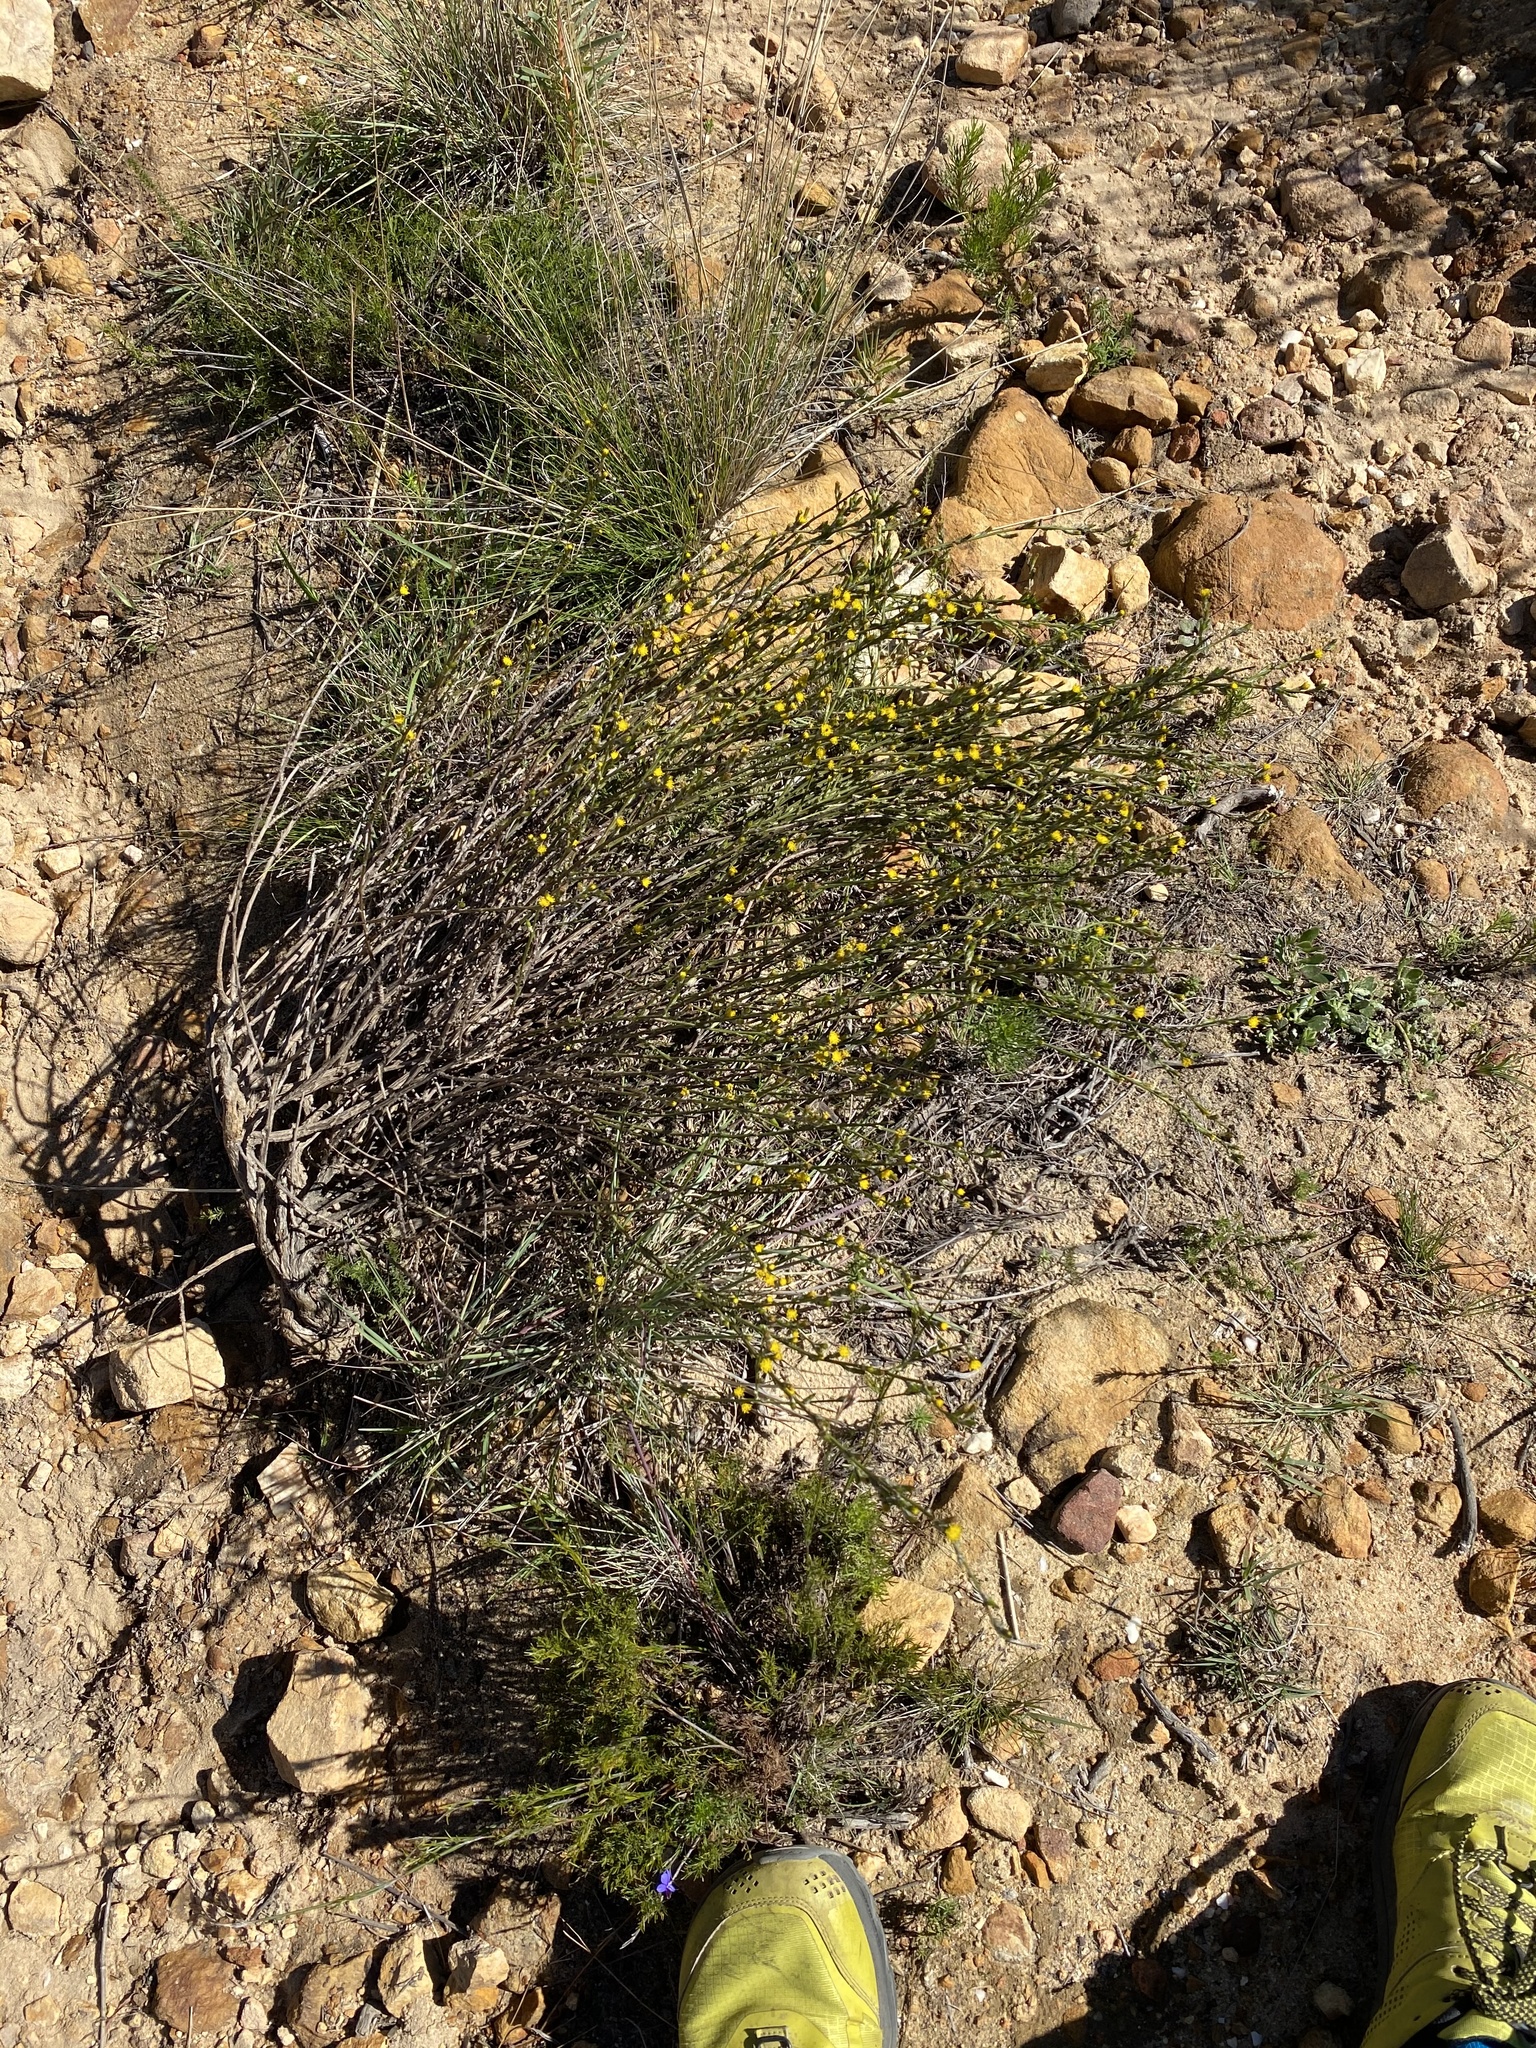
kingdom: Plantae
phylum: Tracheophyta
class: Magnoliopsida
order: Asterales
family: Asteraceae
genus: Senecio
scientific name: Senecio pubigerus
